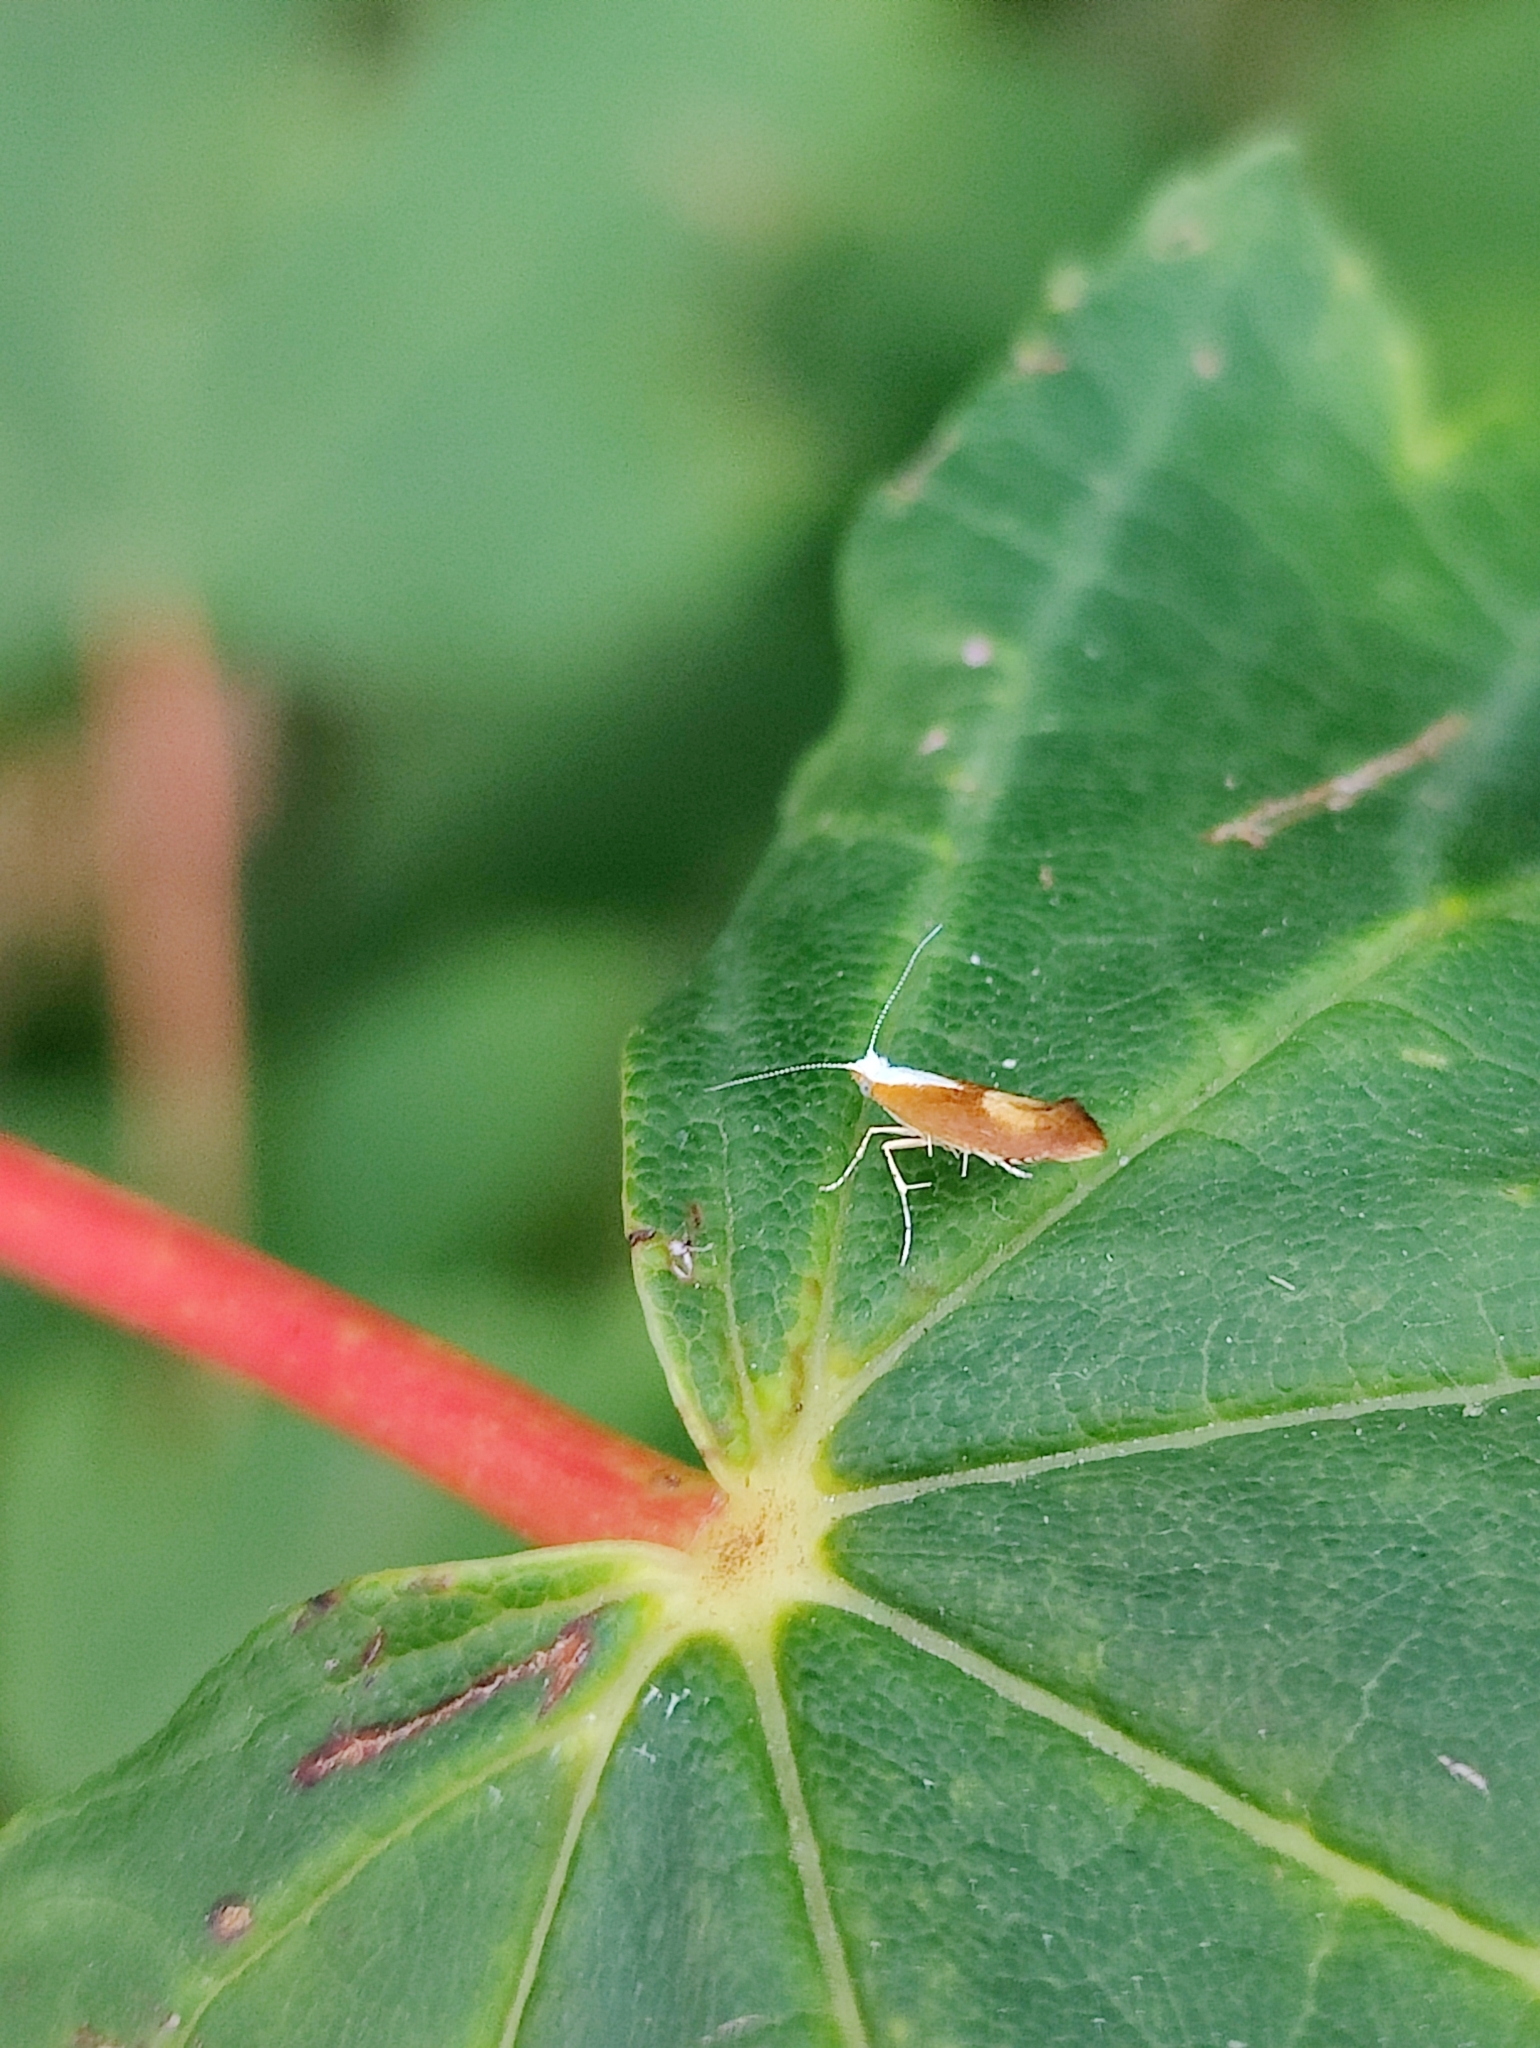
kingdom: Animalia
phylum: Arthropoda
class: Insecta
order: Lepidoptera
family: Argyresthiidae
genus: Argyresthia
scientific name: Argyresthia albistria
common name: Purple argent
